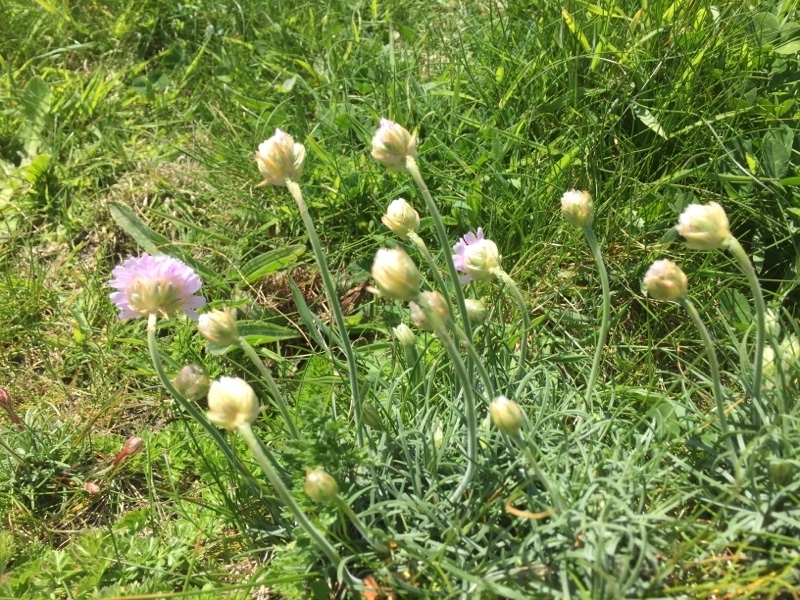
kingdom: Plantae
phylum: Tracheophyta
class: Magnoliopsida
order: Caryophyllales
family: Plumbaginaceae
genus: Armeria
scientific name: Armeria maritima
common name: Thrift
